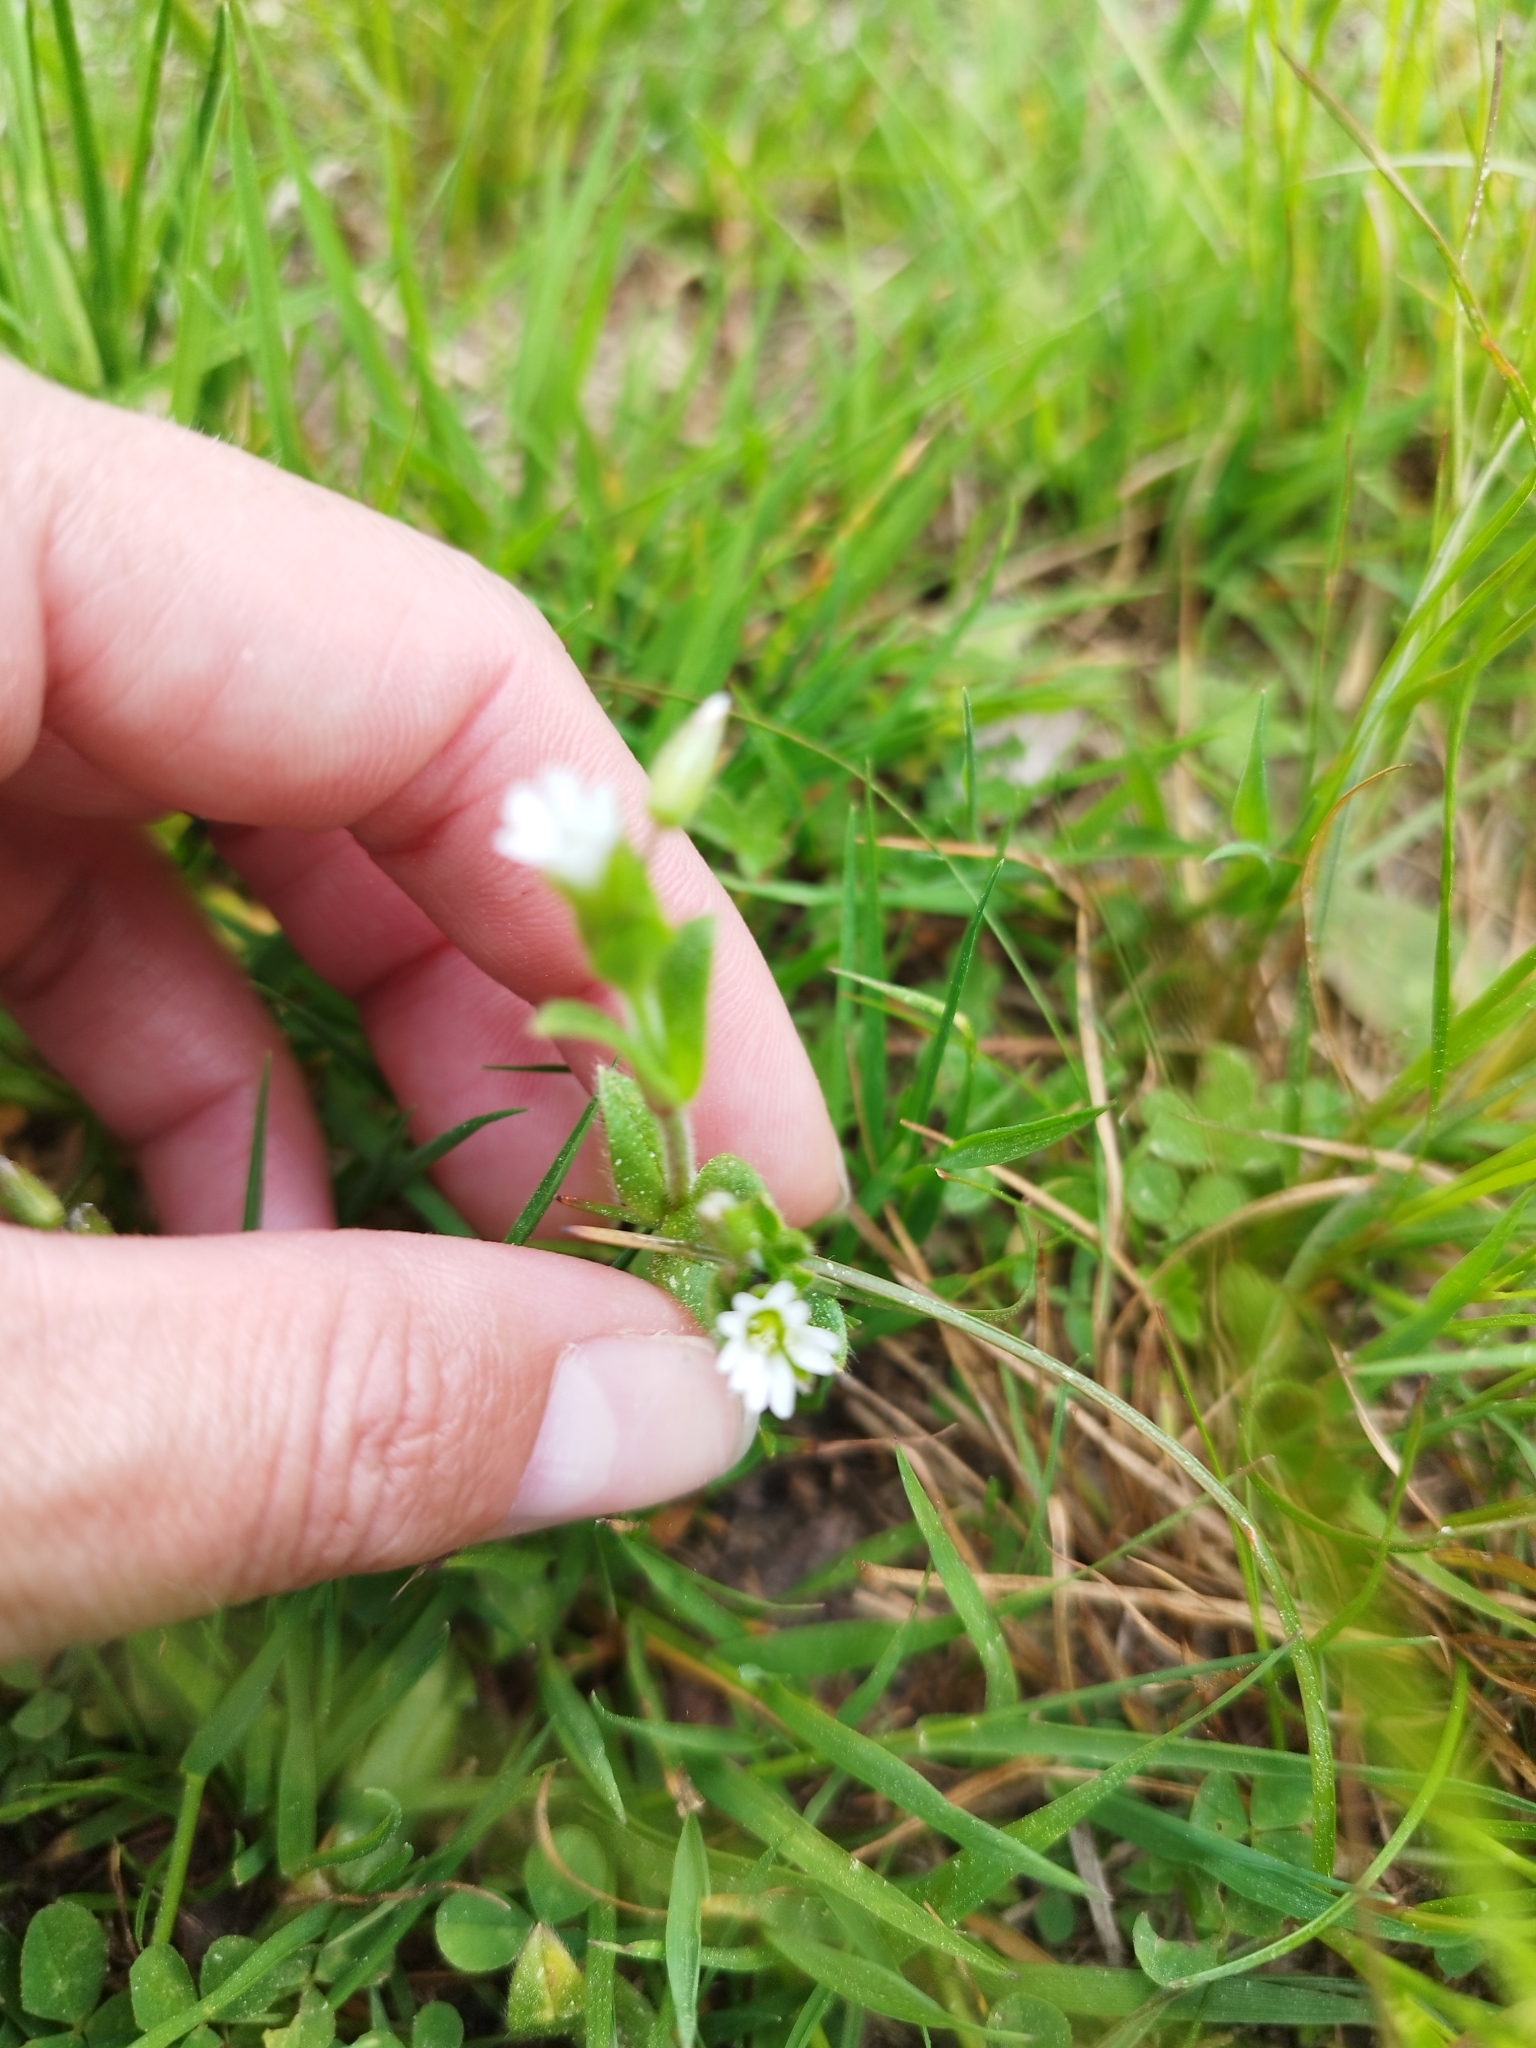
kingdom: Plantae
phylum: Tracheophyta
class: Magnoliopsida
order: Caryophyllales
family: Caryophyllaceae
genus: Cerastium
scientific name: Cerastium holosteoides
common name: Big chickweed
